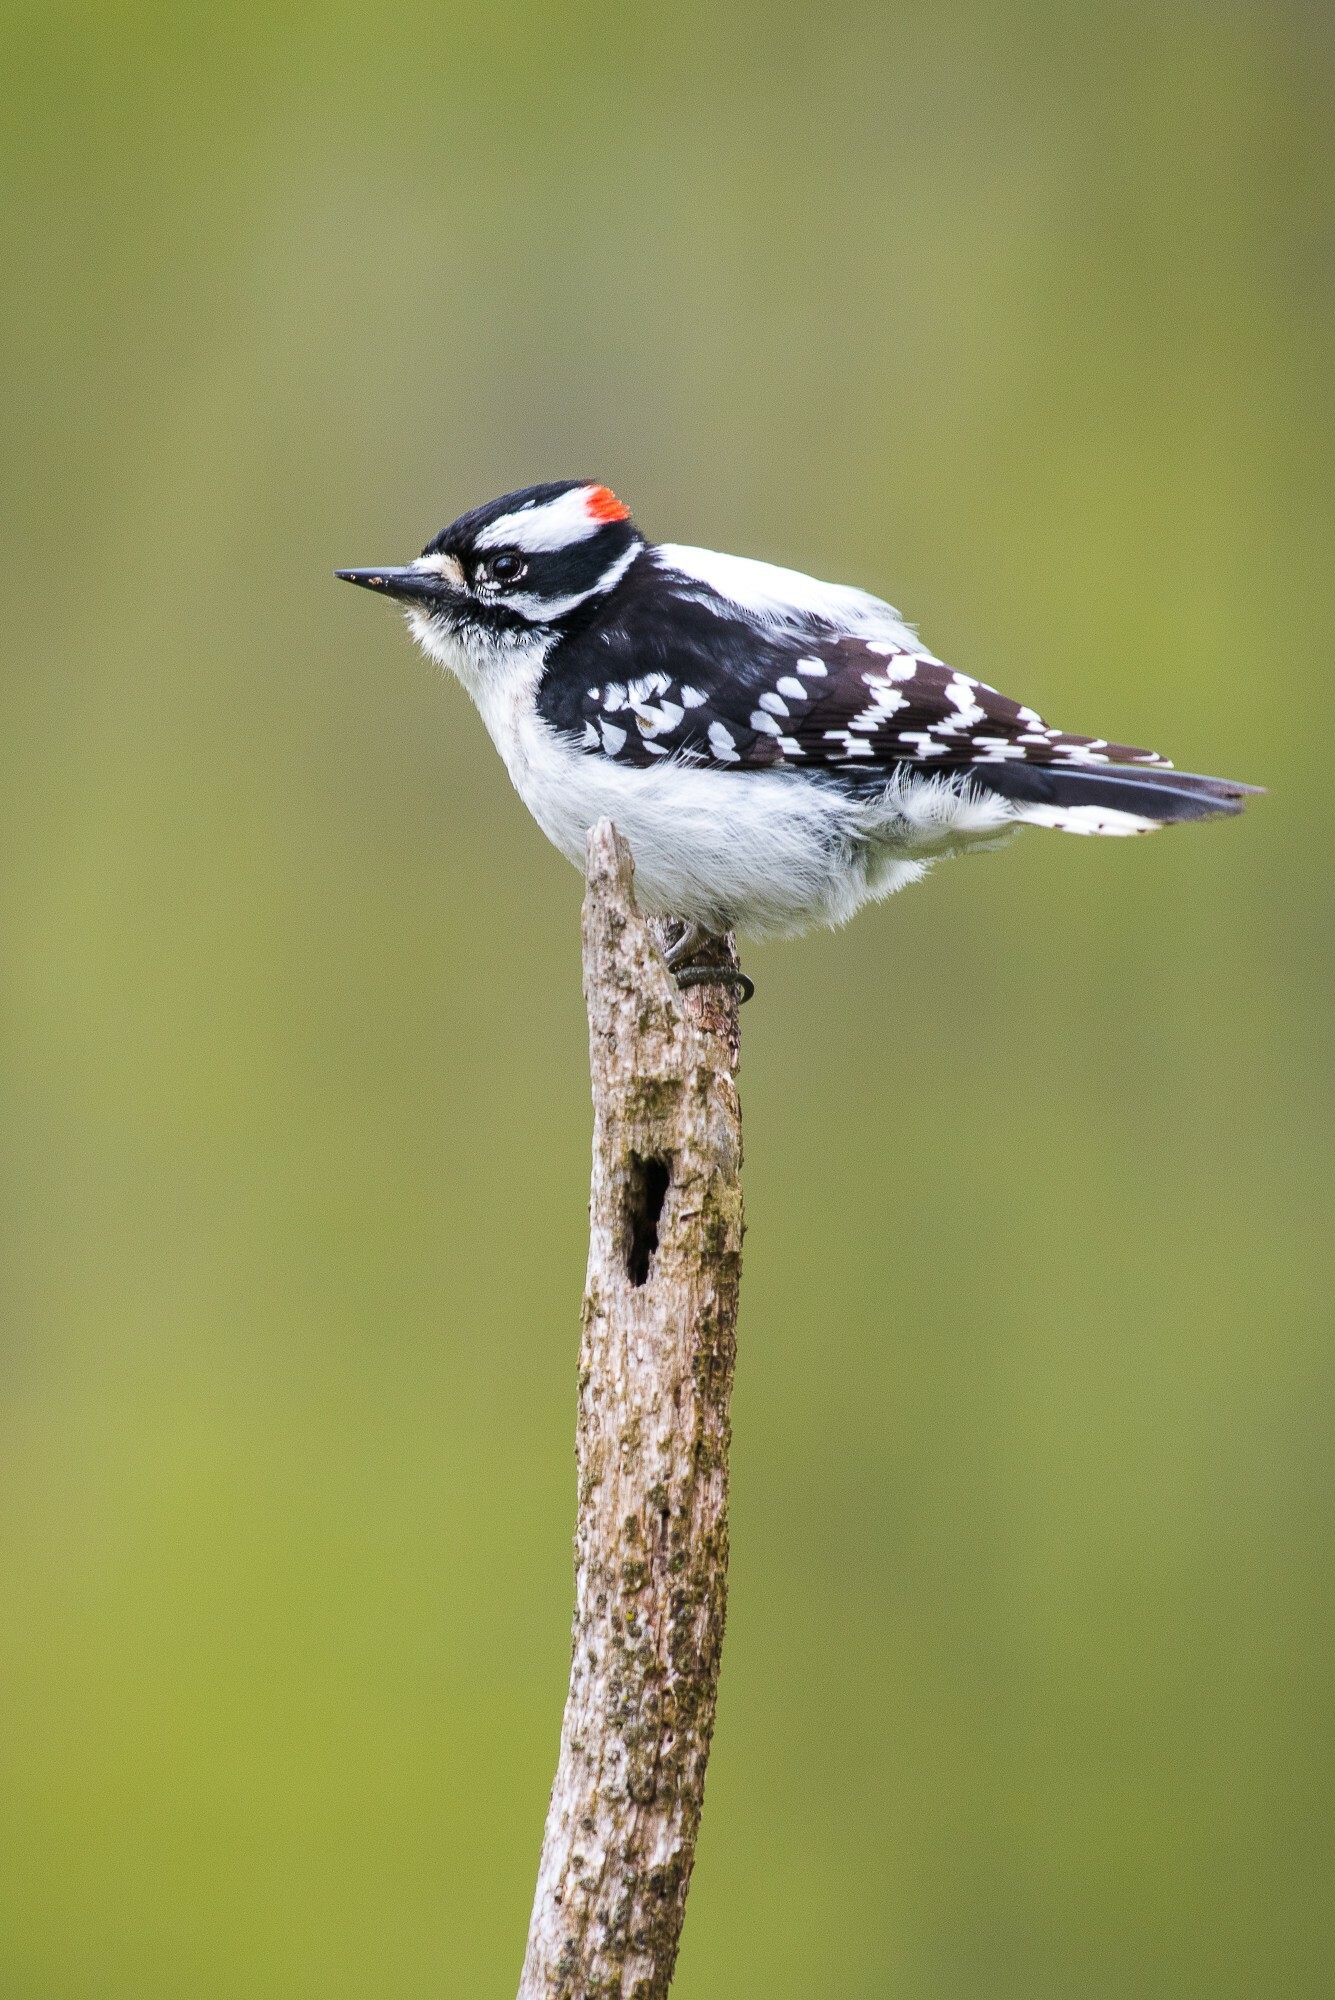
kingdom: Animalia
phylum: Chordata
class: Aves
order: Piciformes
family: Picidae
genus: Dryobates
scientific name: Dryobates pubescens
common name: Downy woodpecker
